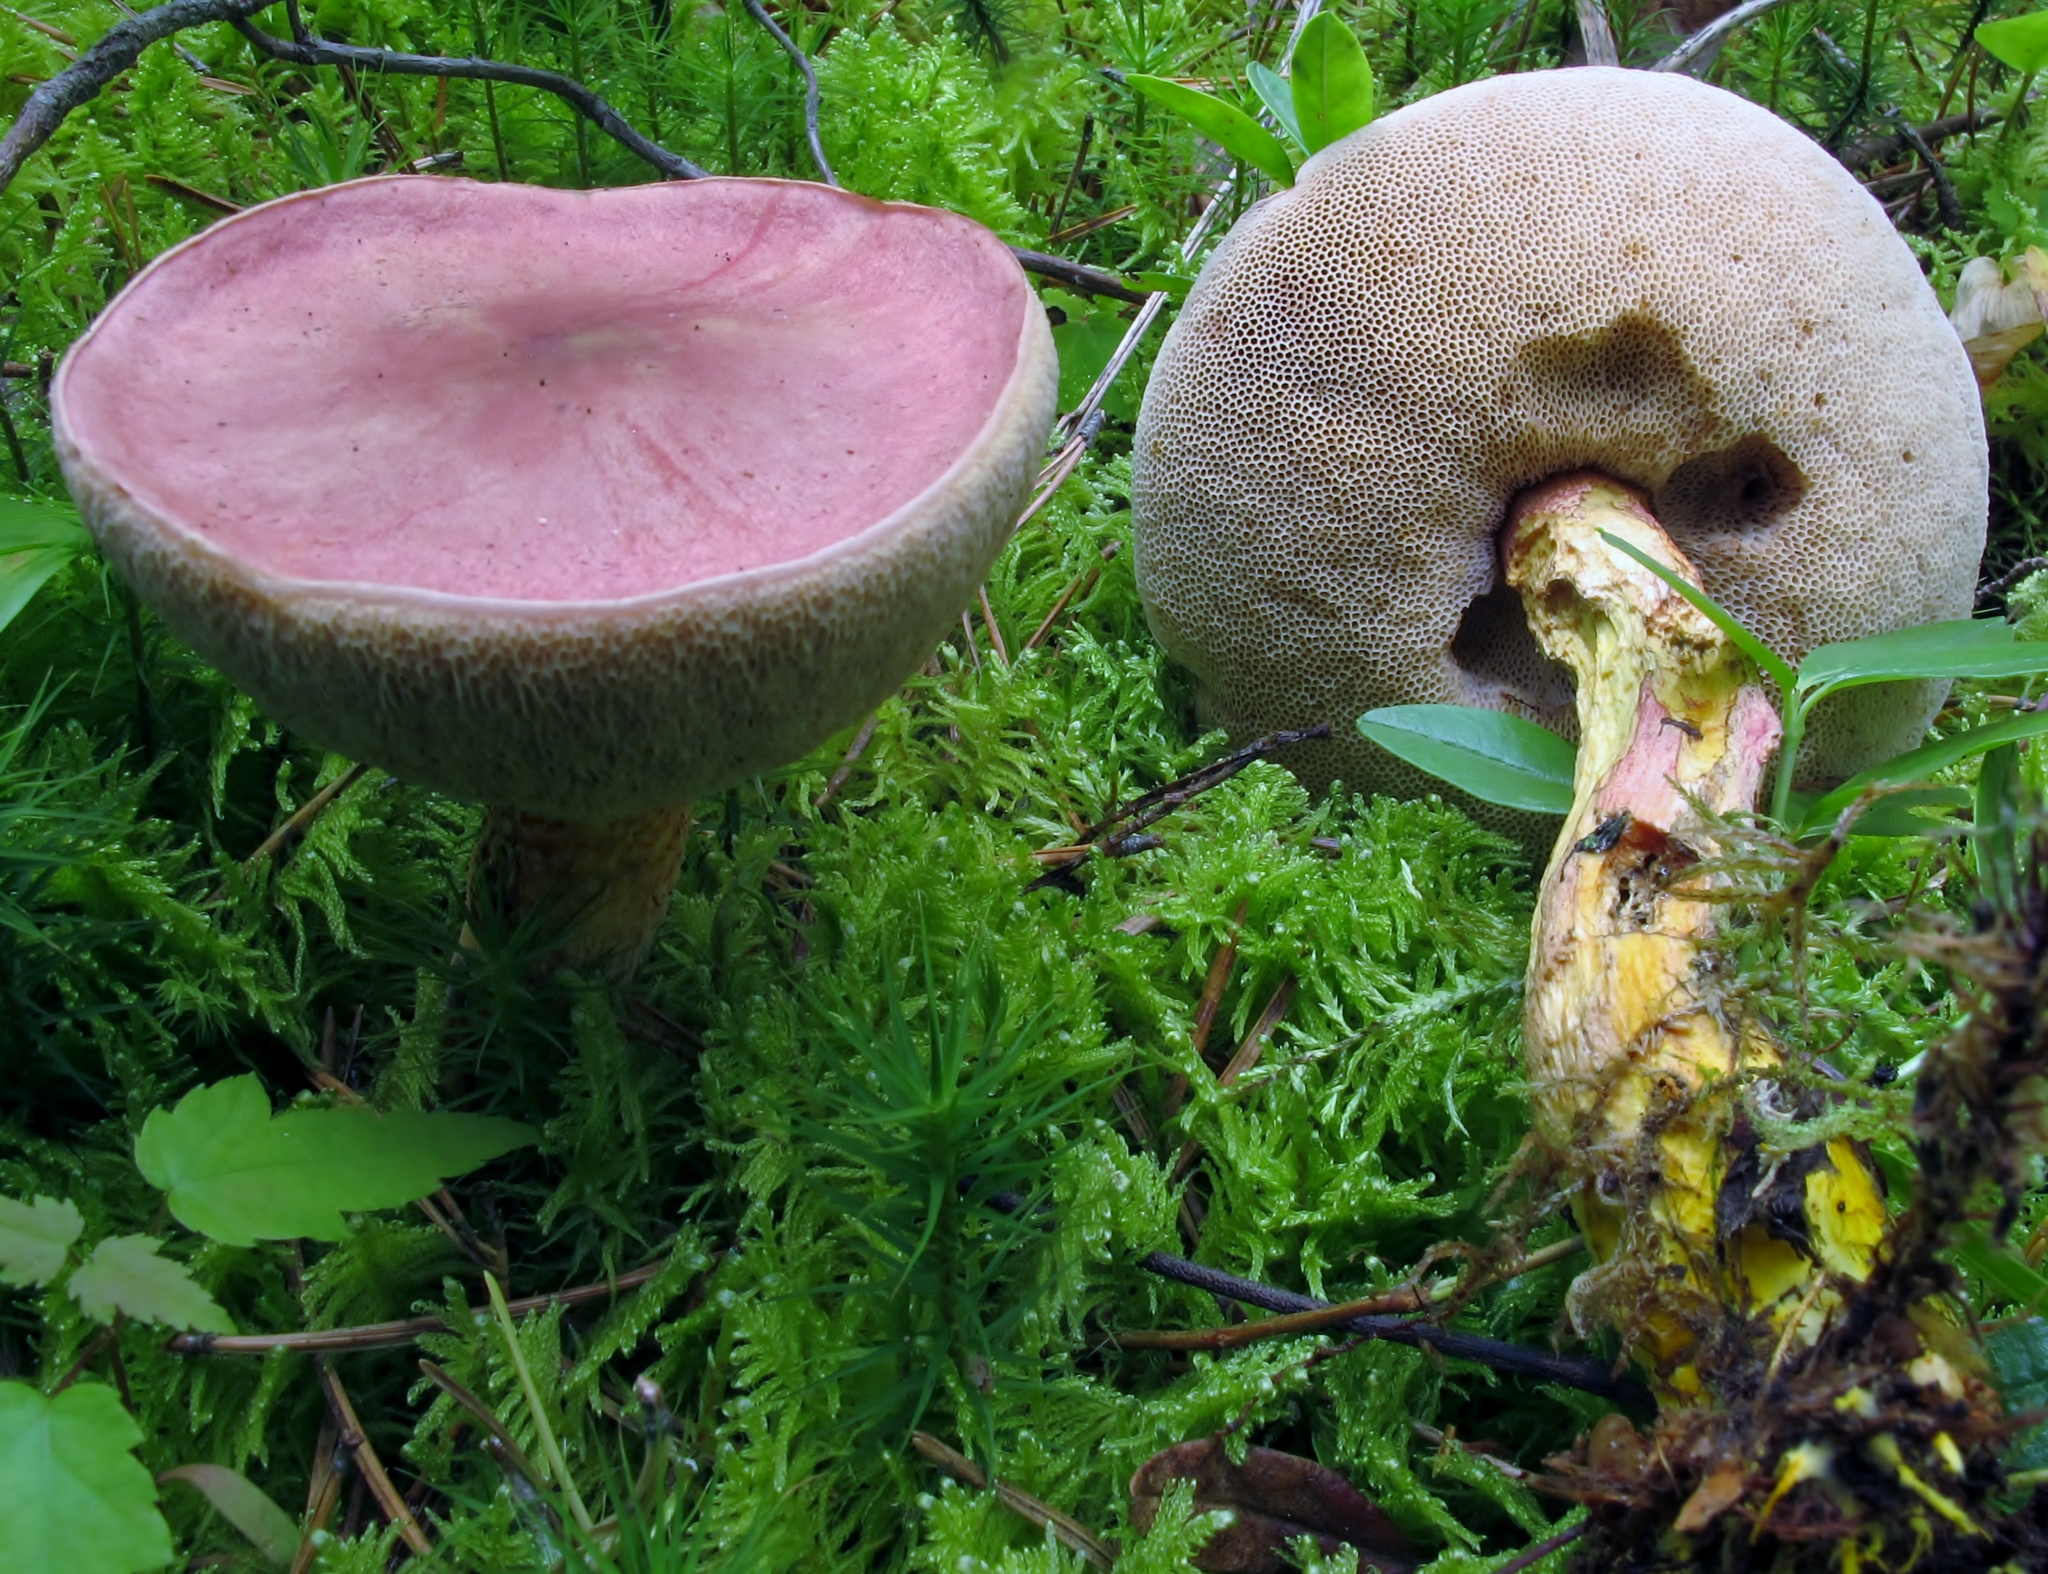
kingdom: Fungi
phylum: Basidiomycota
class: Agaricomycetes
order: Boletales
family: Boletaceae
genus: Harrya
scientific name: Harrya chromipes
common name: Chrome-footed bolete
